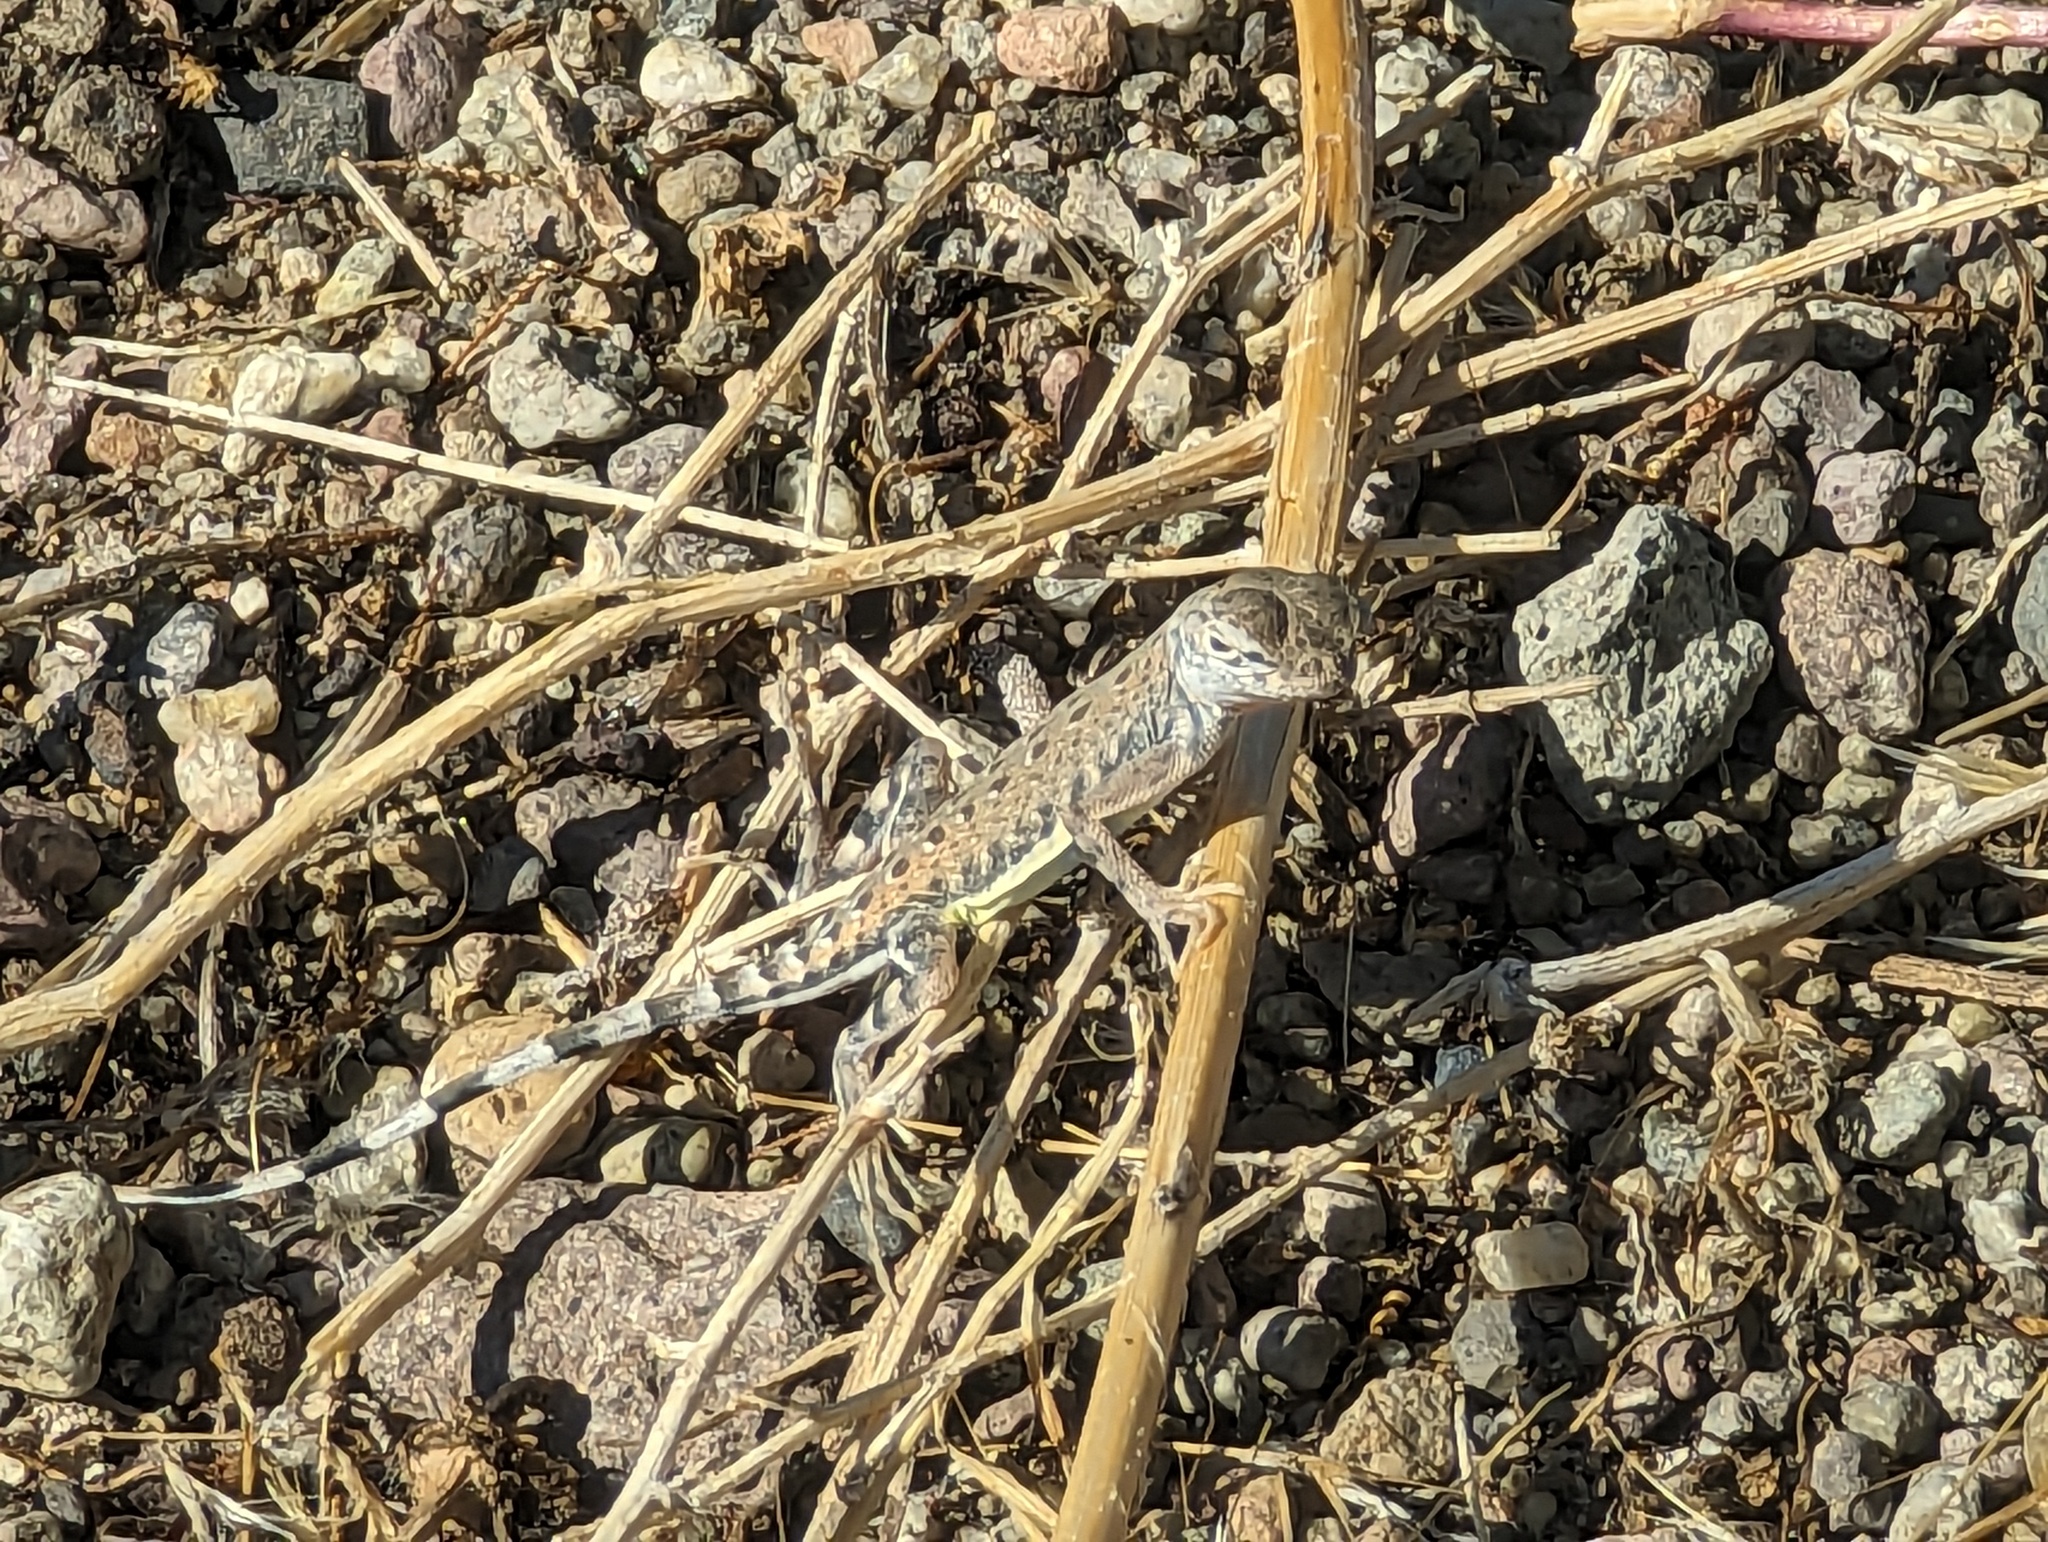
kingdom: Animalia
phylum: Chordata
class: Squamata
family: Phrynosomatidae
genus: Callisaurus
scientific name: Callisaurus draconoides
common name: Zebra-tailed lizard
